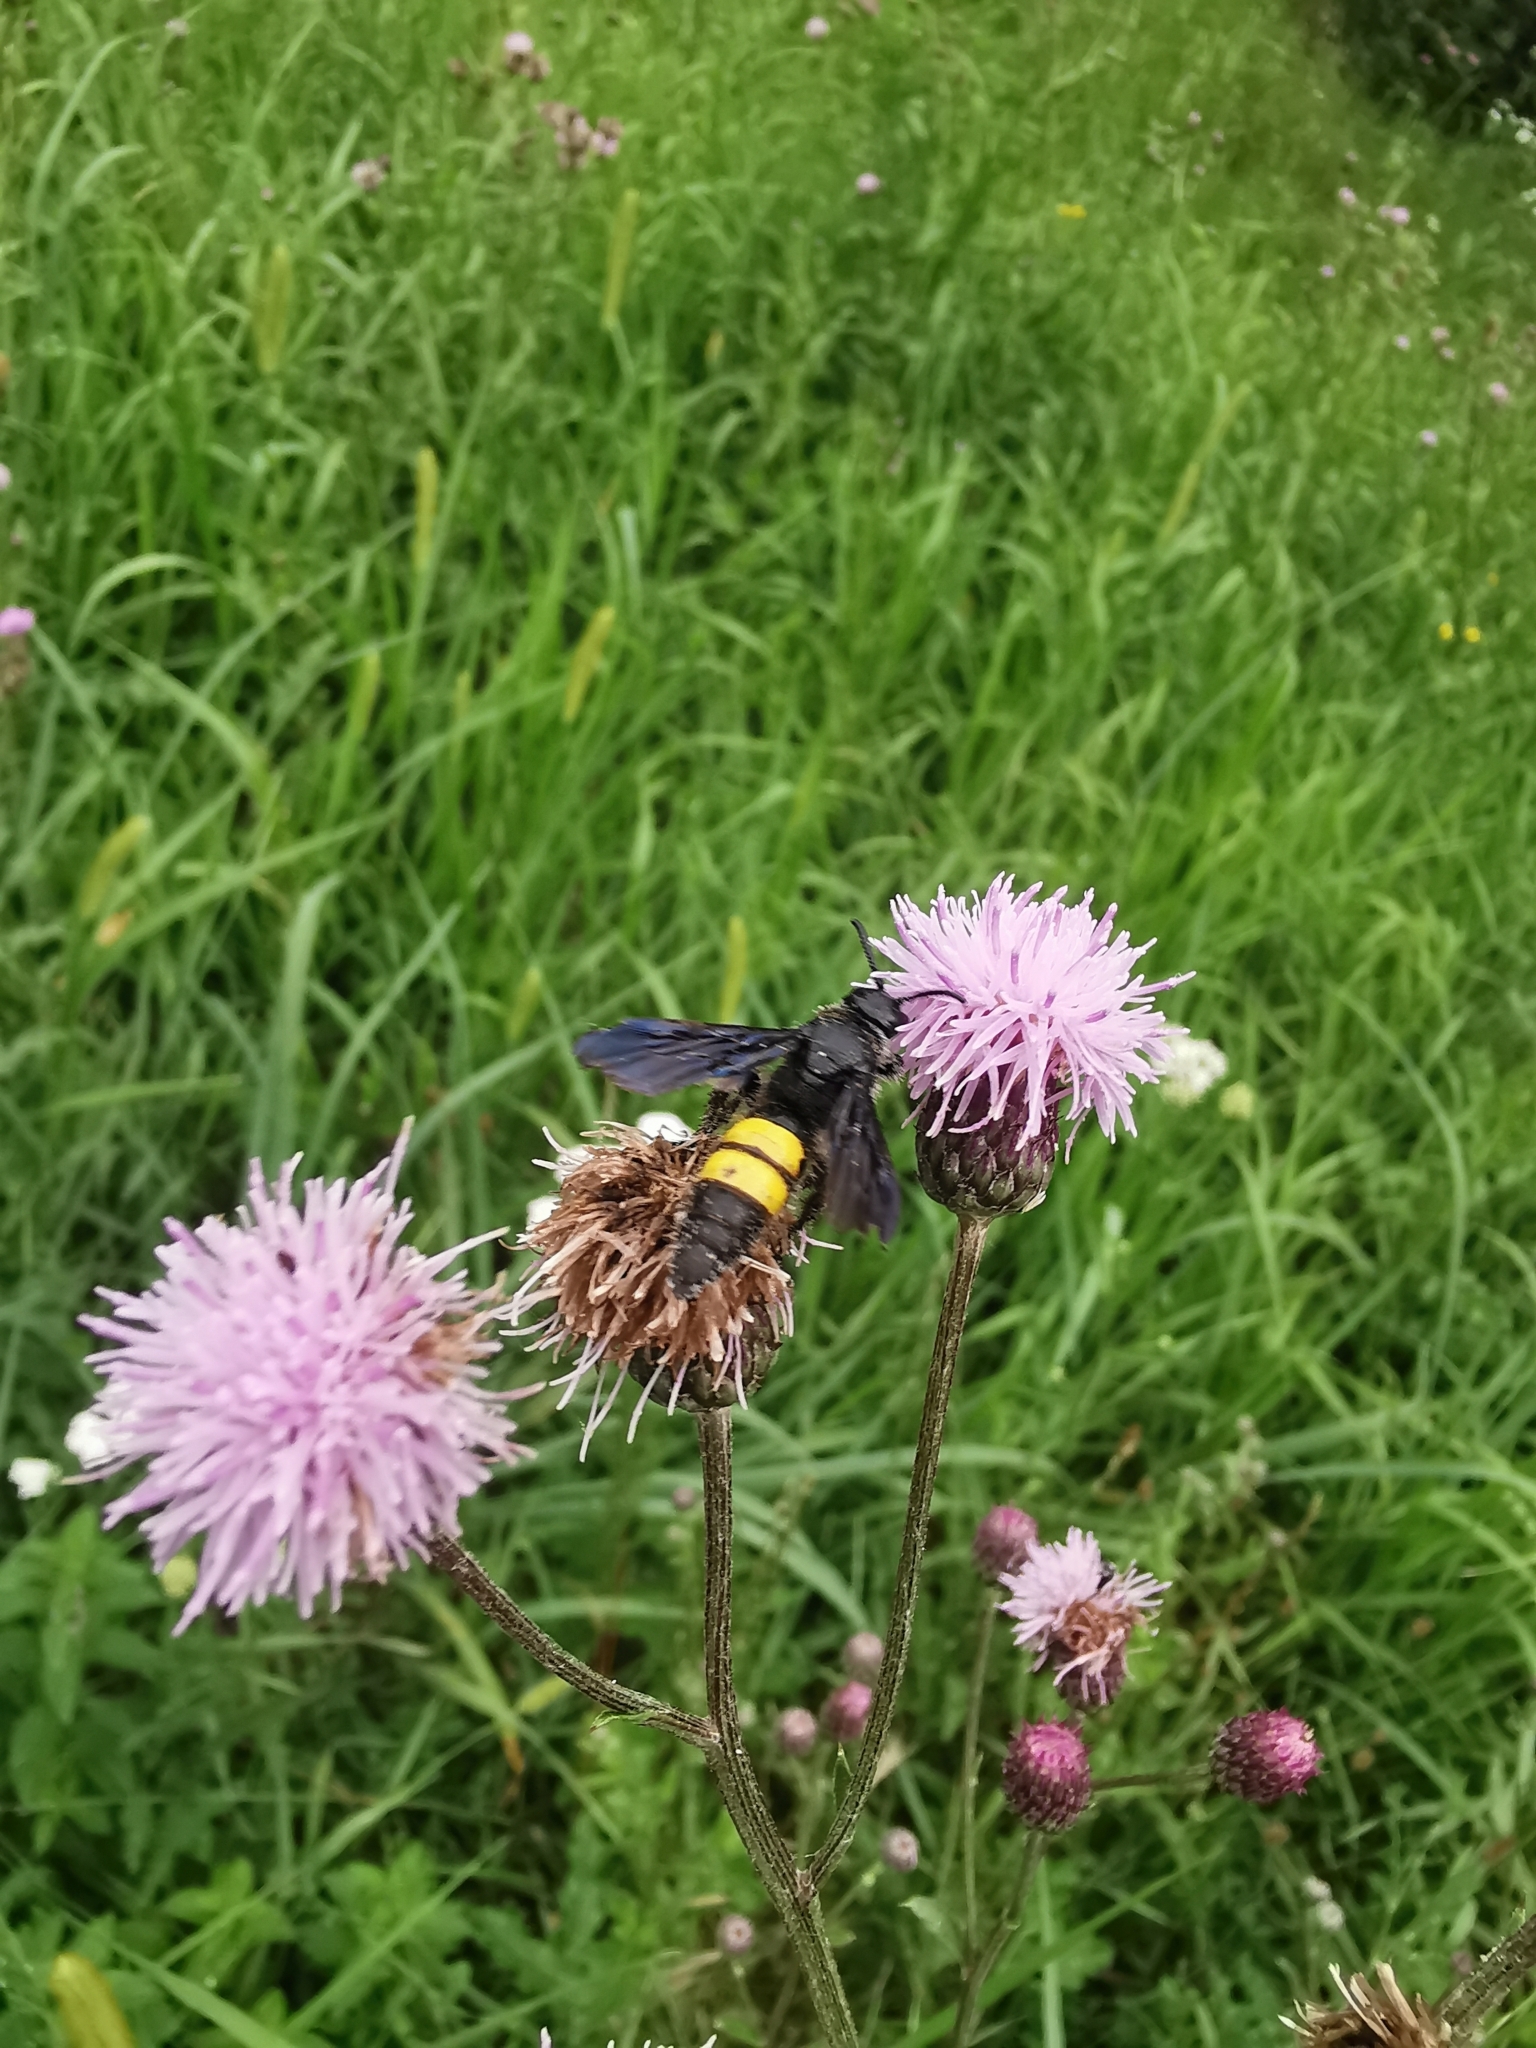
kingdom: Animalia
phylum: Arthropoda
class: Insecta
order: Hymenoptera
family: Scoliidae
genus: Scolia
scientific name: Scolia hirta
